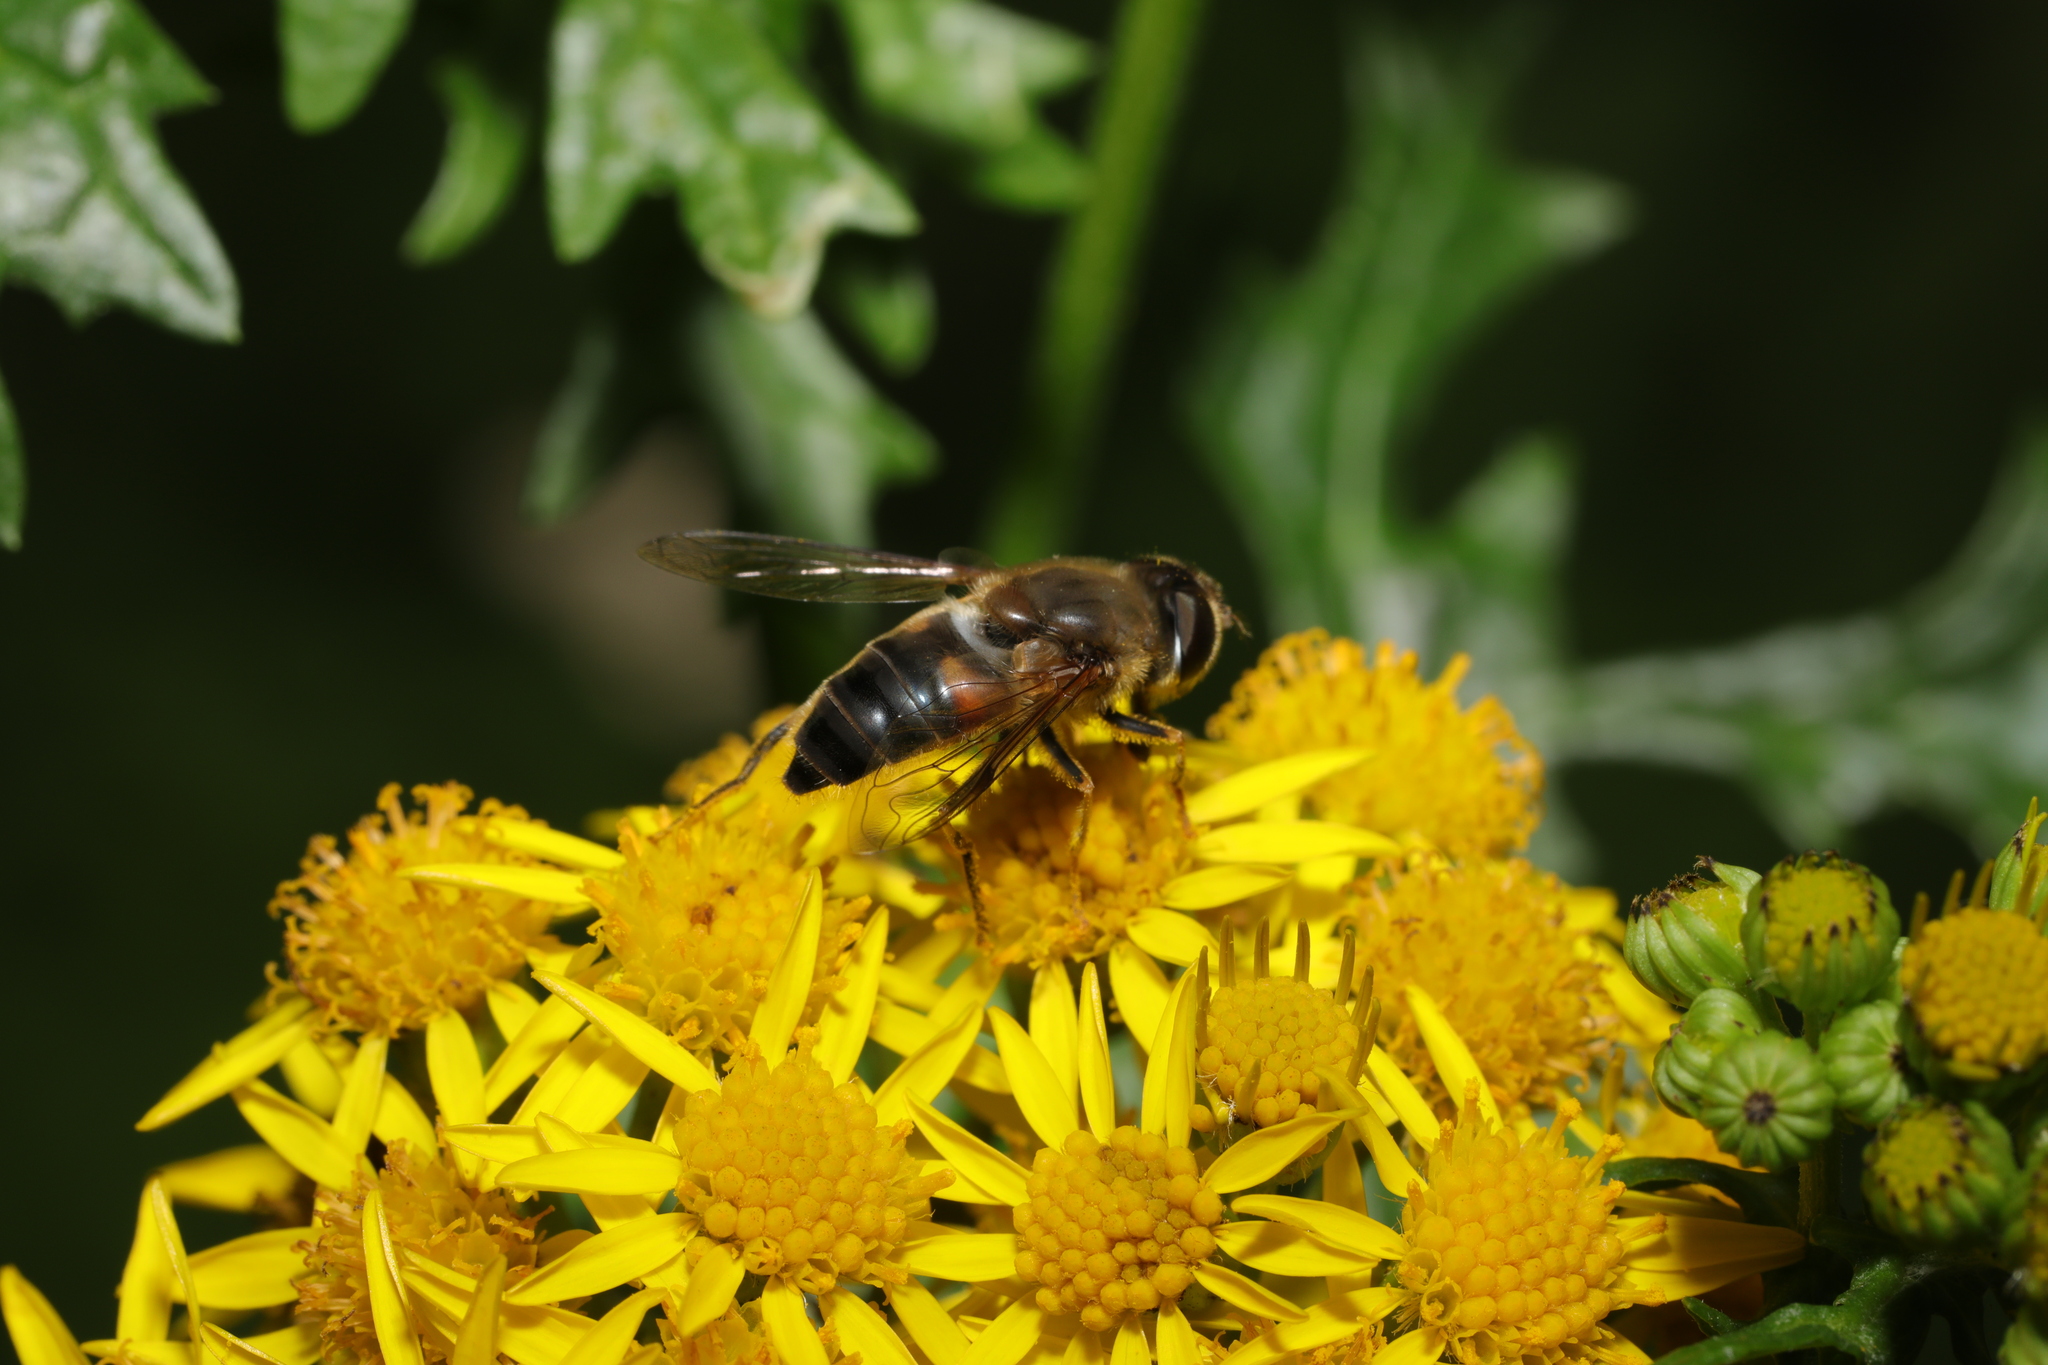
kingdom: Animalia
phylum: Arthropoda
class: Insecta
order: Diptera
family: Syrphidae
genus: Eristalis
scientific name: Eristalis pertinax
